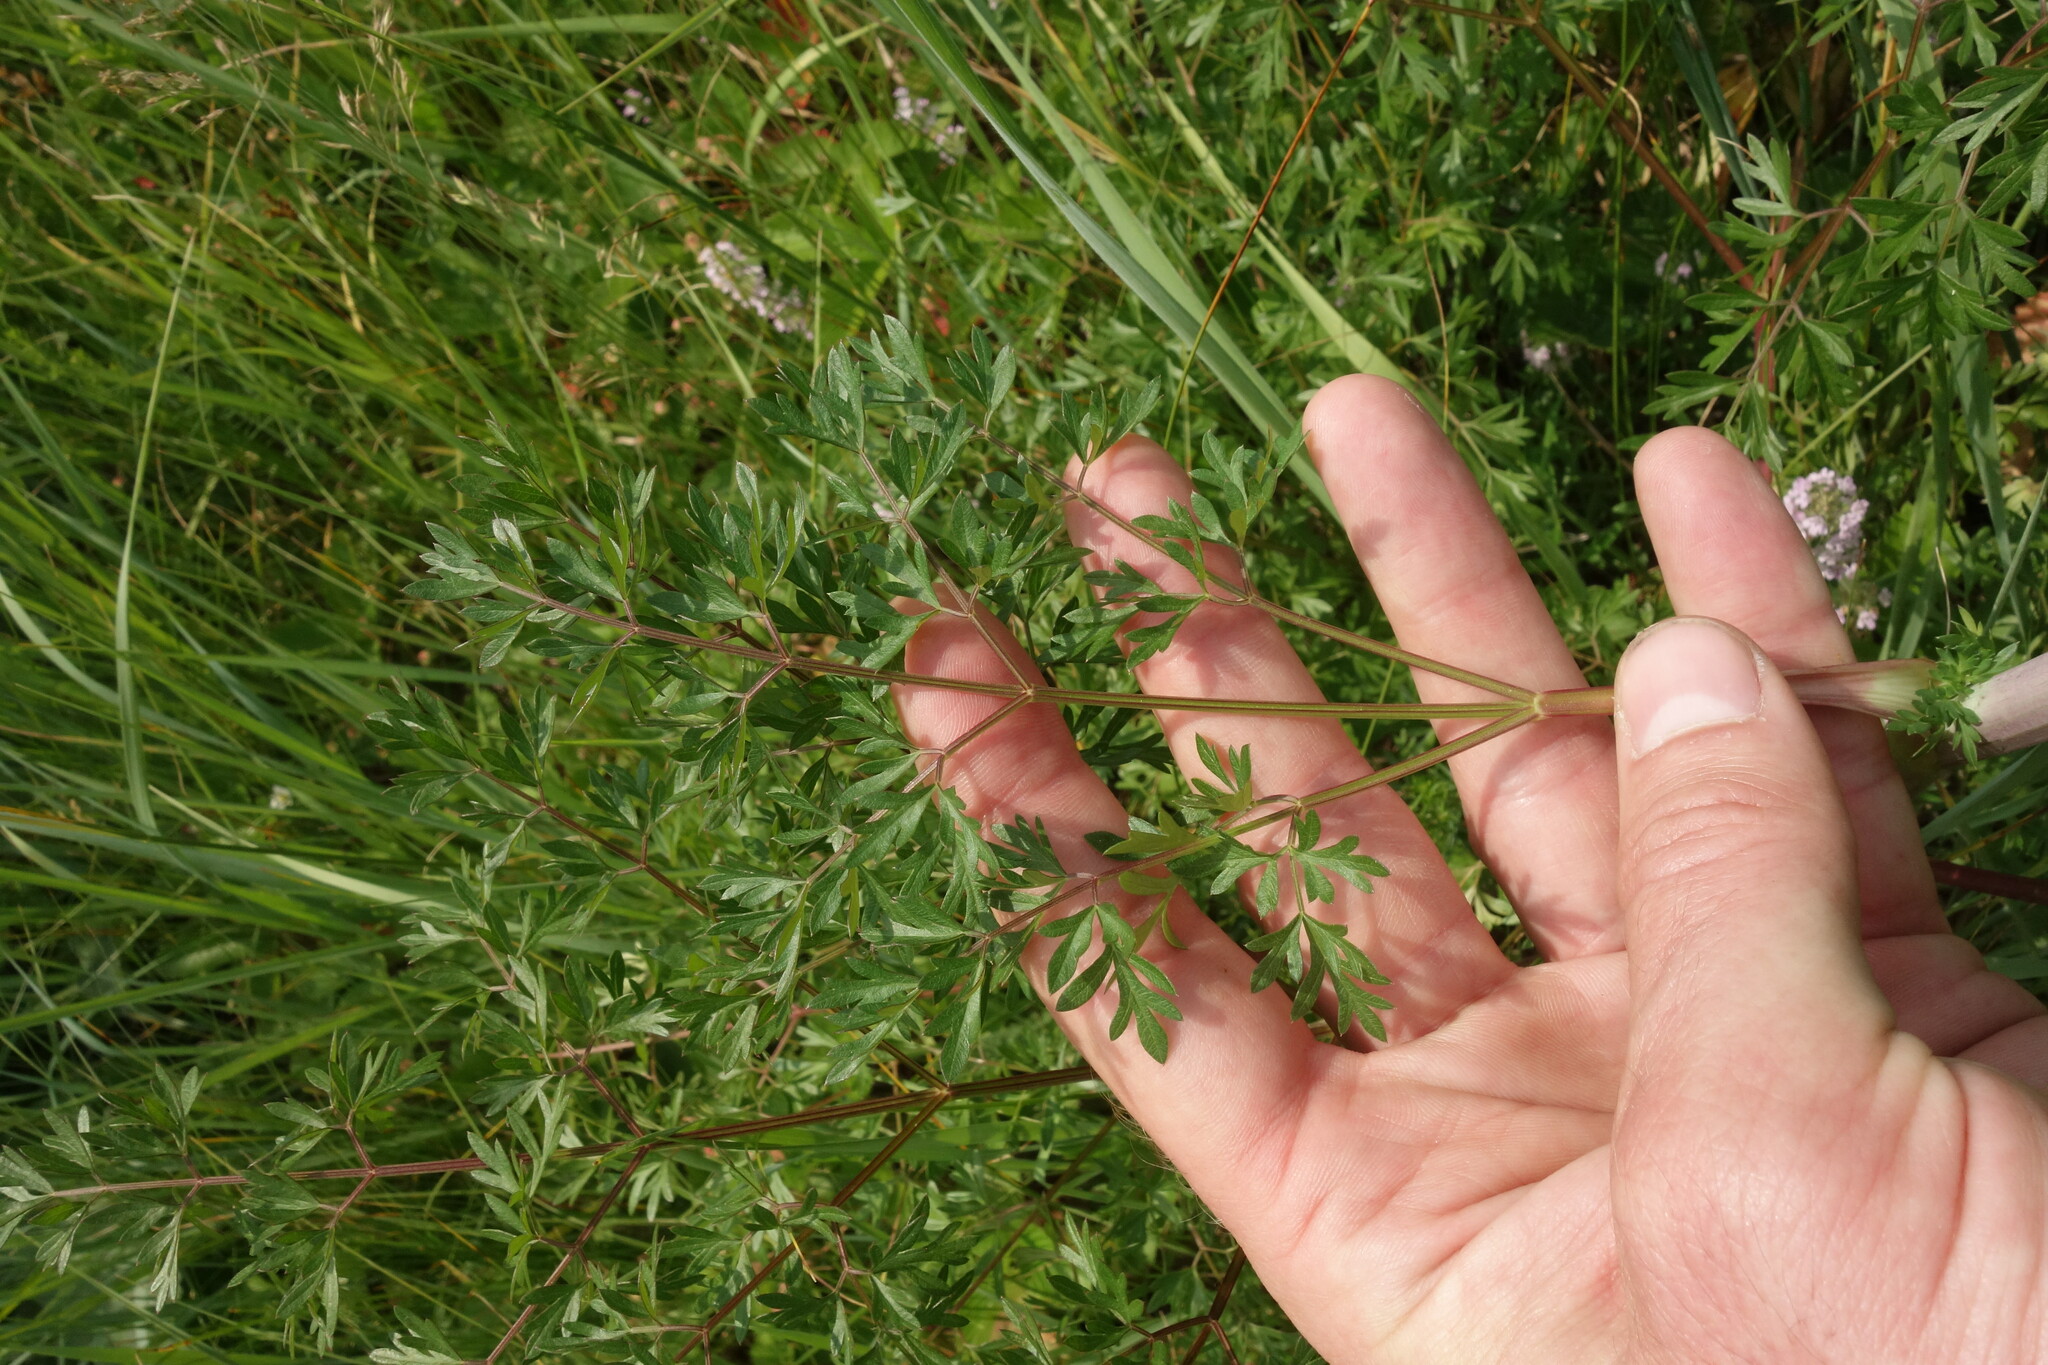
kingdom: Plantae
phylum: Tracheophyta
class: Magnoliopsida
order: Apiales
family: Apiaceae
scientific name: Apiaceae
